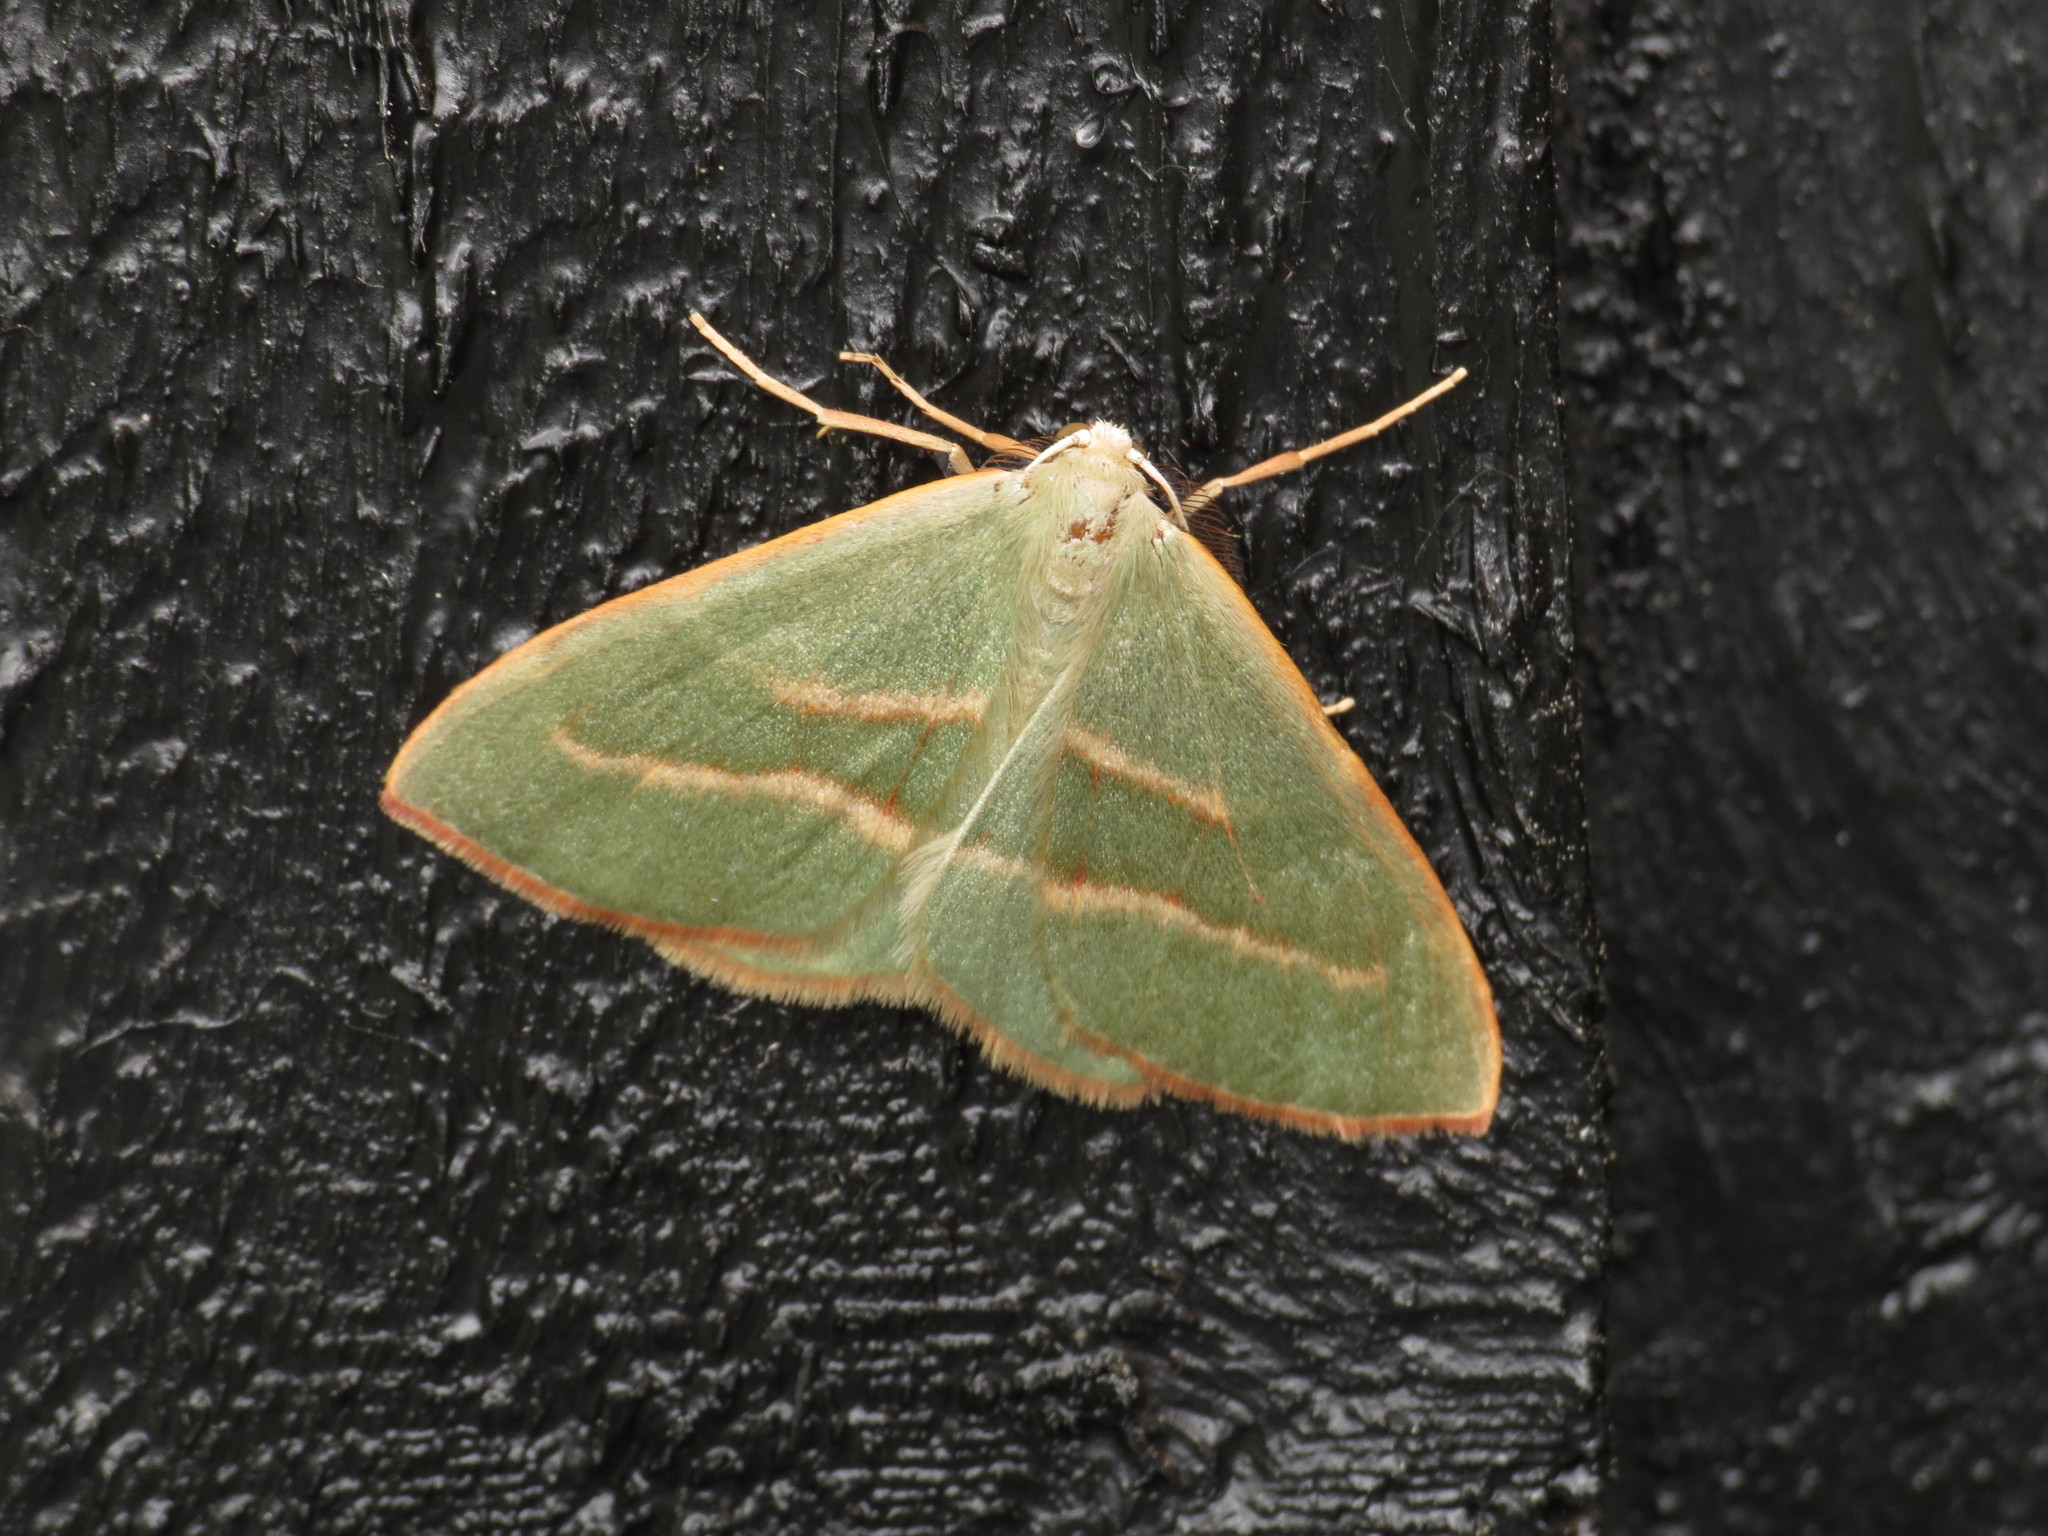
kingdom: Animalia
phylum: Arthropoda
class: Insecta
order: Lepidoptera
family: Geometridae
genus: Hylaea
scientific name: Hylaea fasciaria
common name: Barred red
